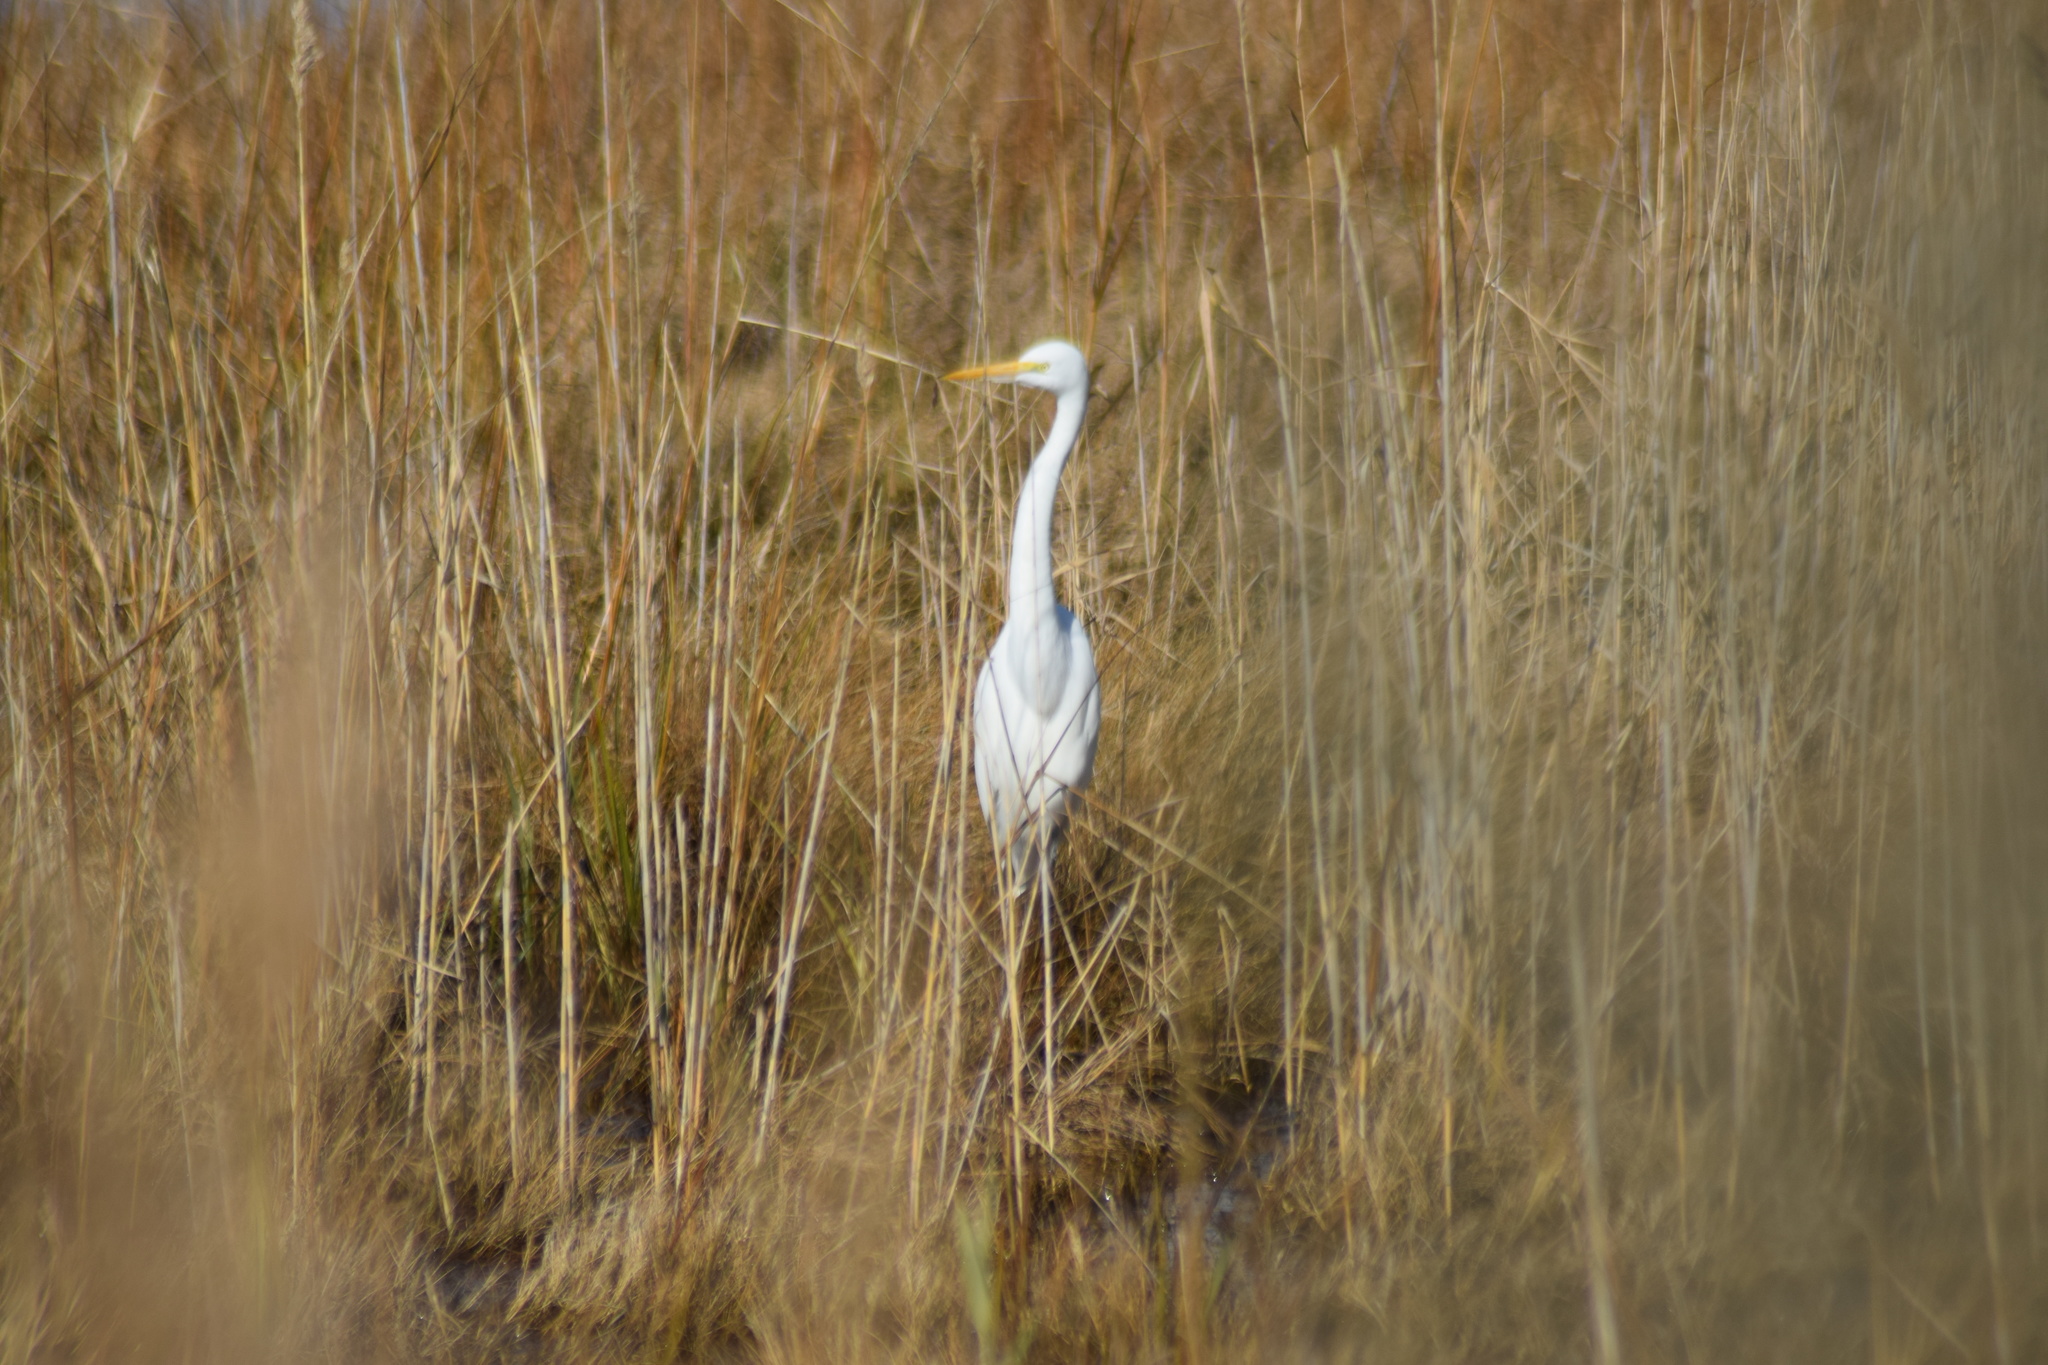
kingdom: Animalia
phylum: Chordata
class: Aves
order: Pelecaniformes
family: Ardeidae
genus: Ardea
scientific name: Ardea alba
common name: Great egret
